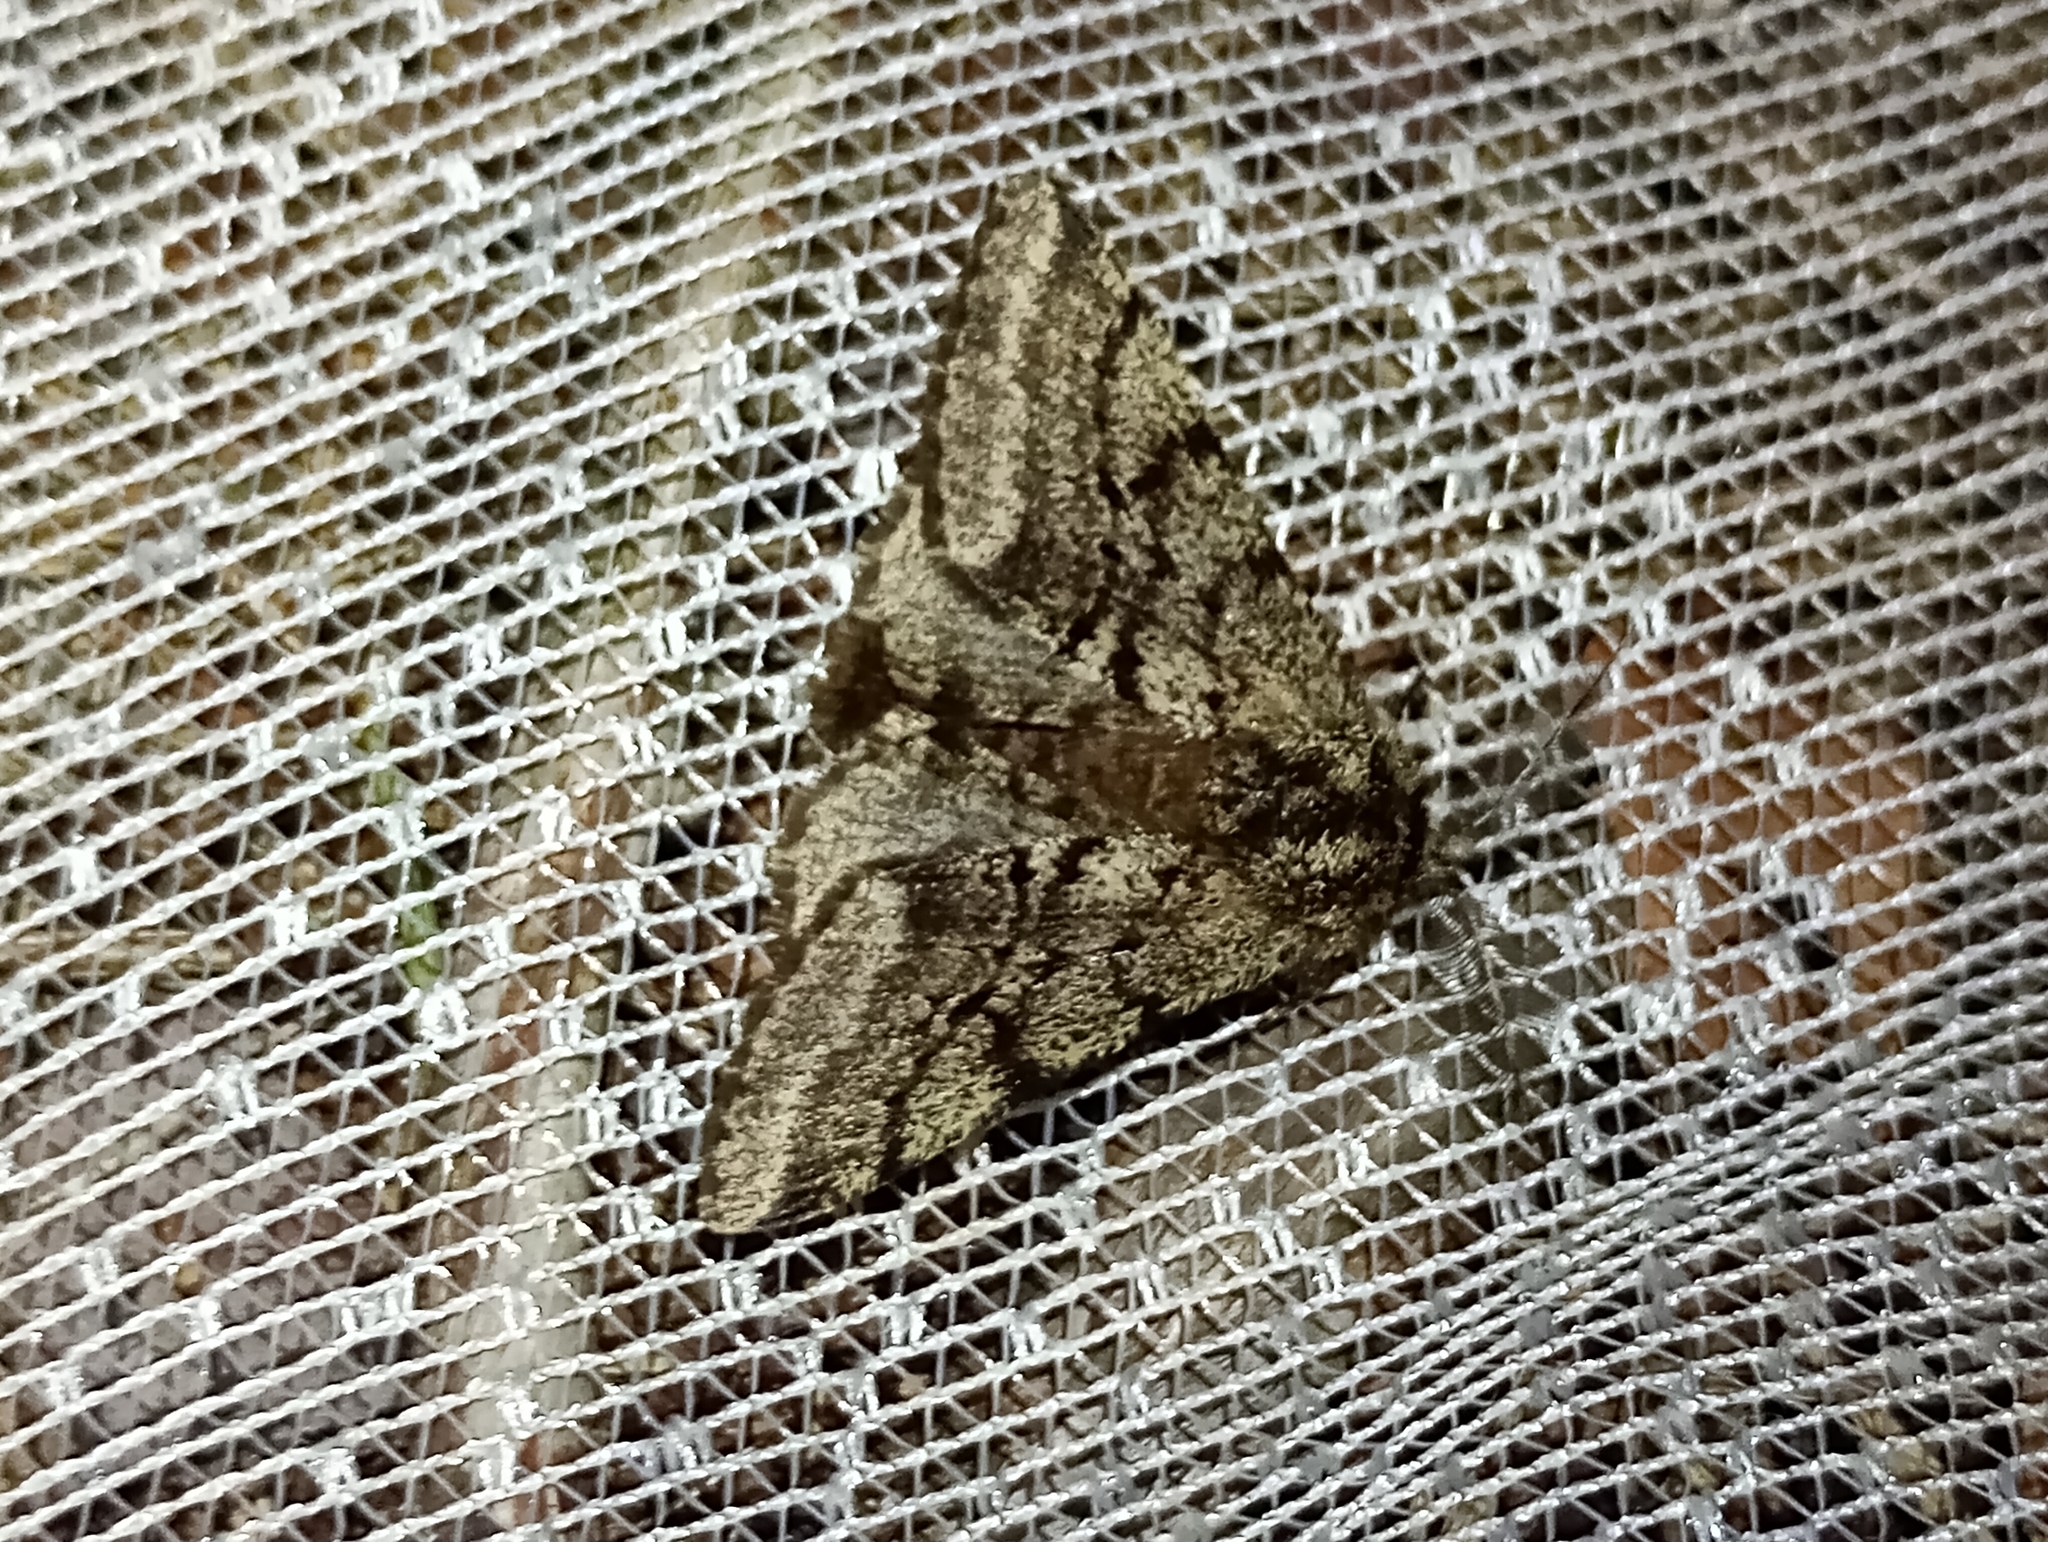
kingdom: Animalia
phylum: Arthropoda
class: Insecta
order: Lepidoptera
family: Geometridae
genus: Lycia
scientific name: Lycia hirtaria
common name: Brindled beauty
